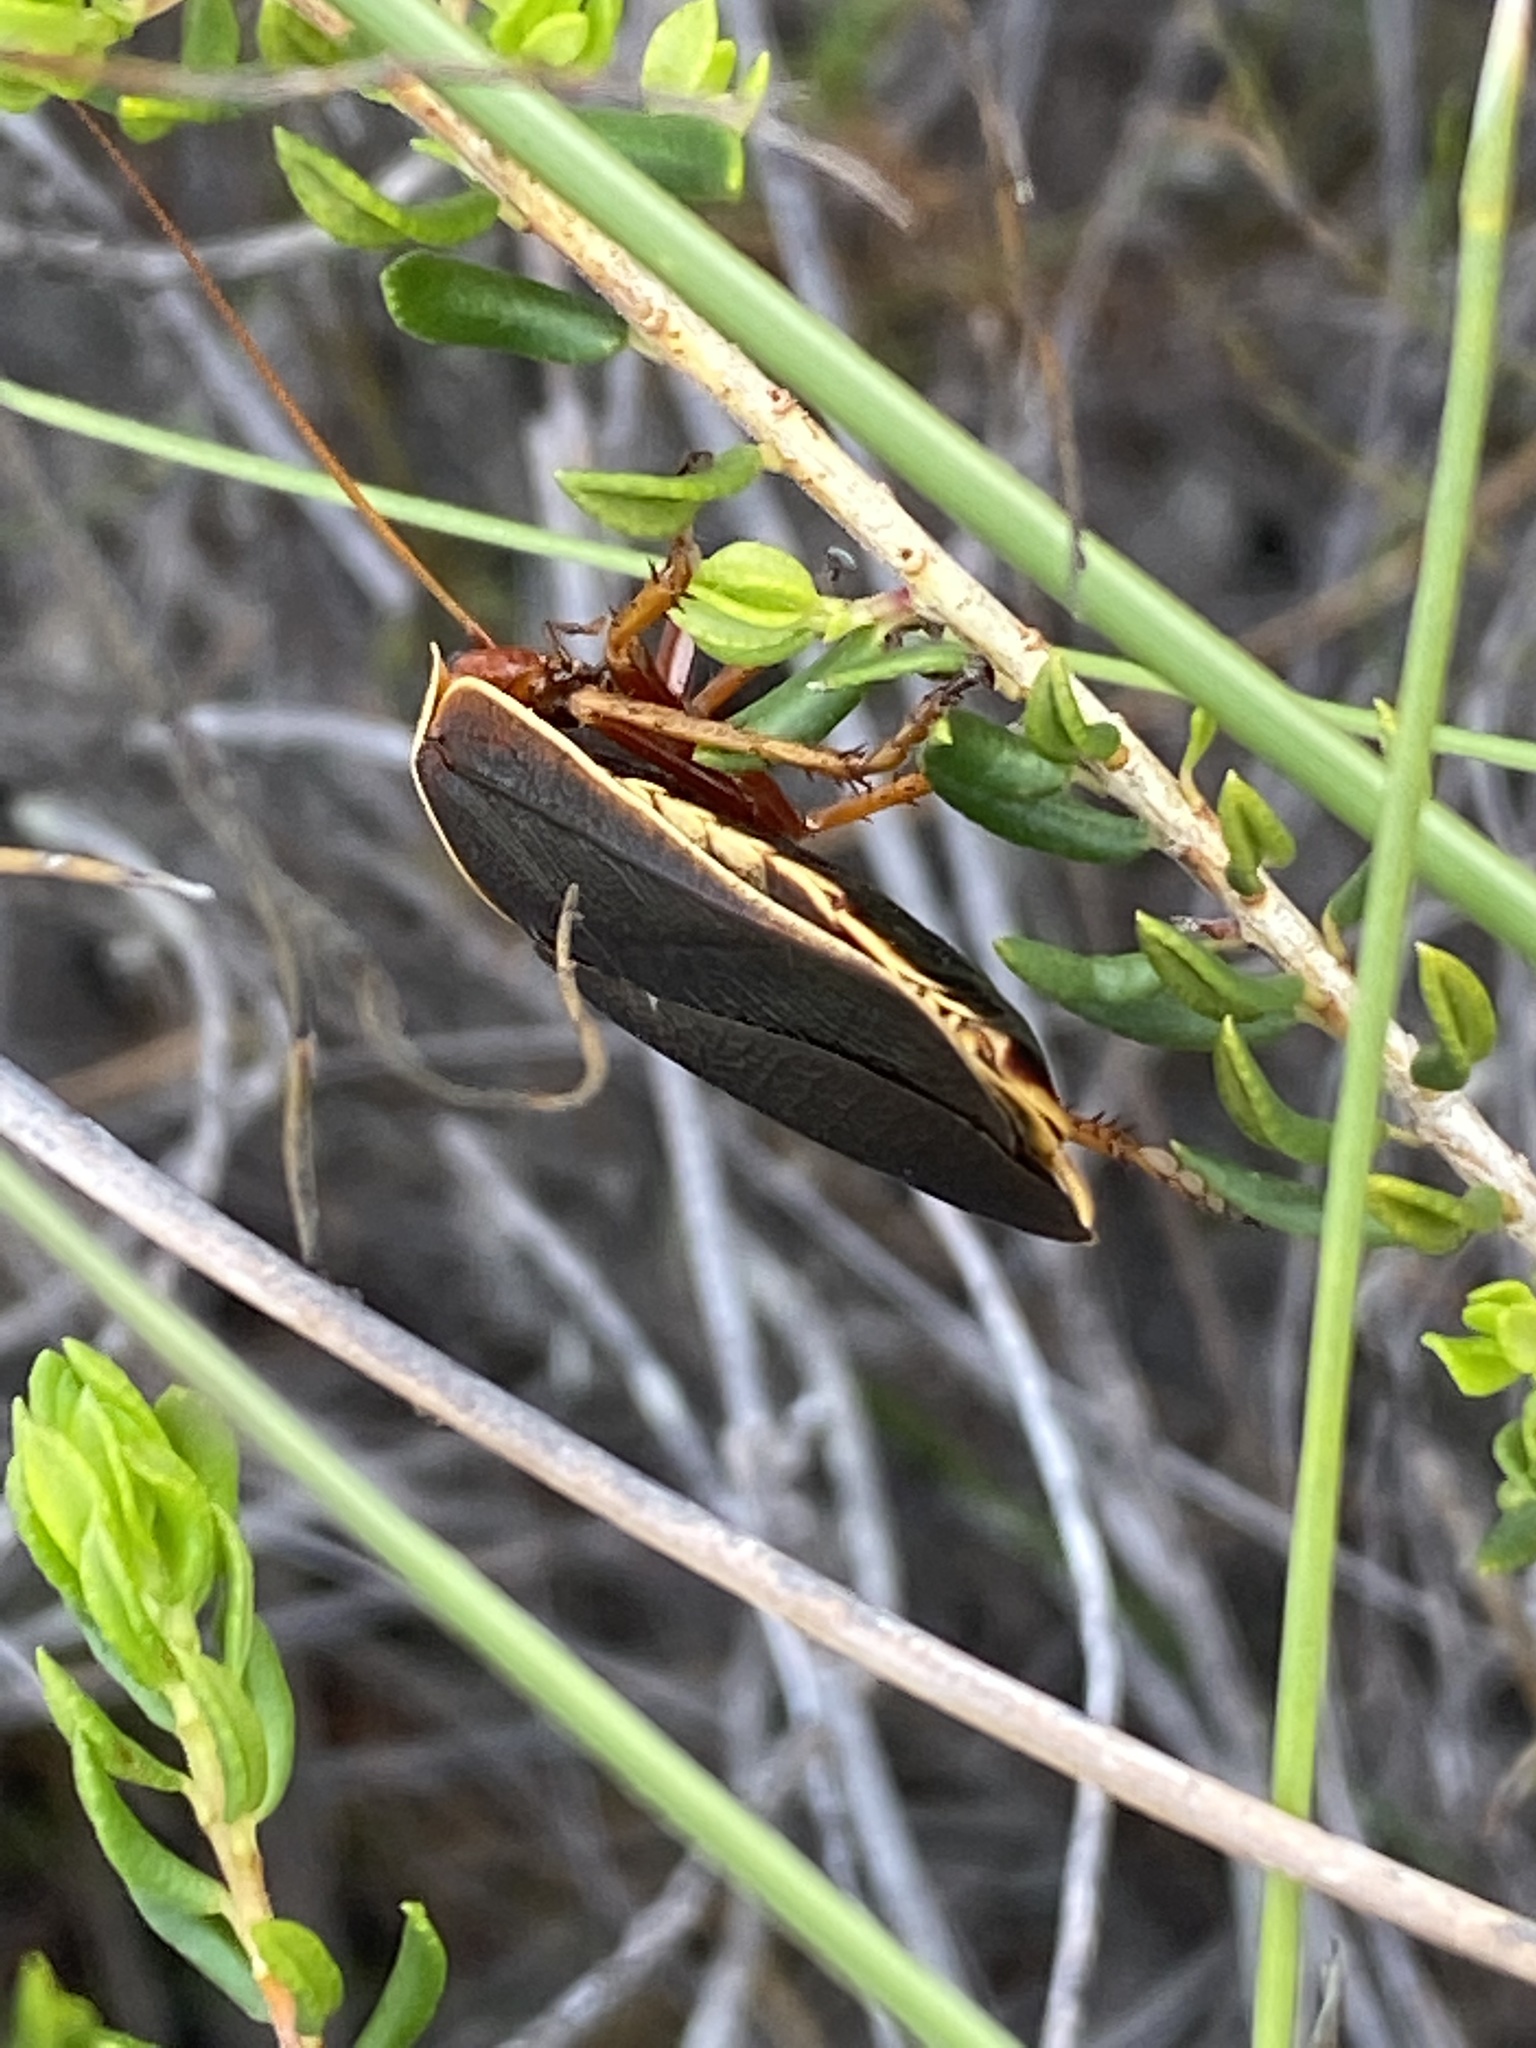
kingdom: Animalia
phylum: Arthropoda
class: Insecta
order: Blattodea
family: Blaberidae
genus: Aptera
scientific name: Aptera fusca
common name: Cape mountain cockroach
